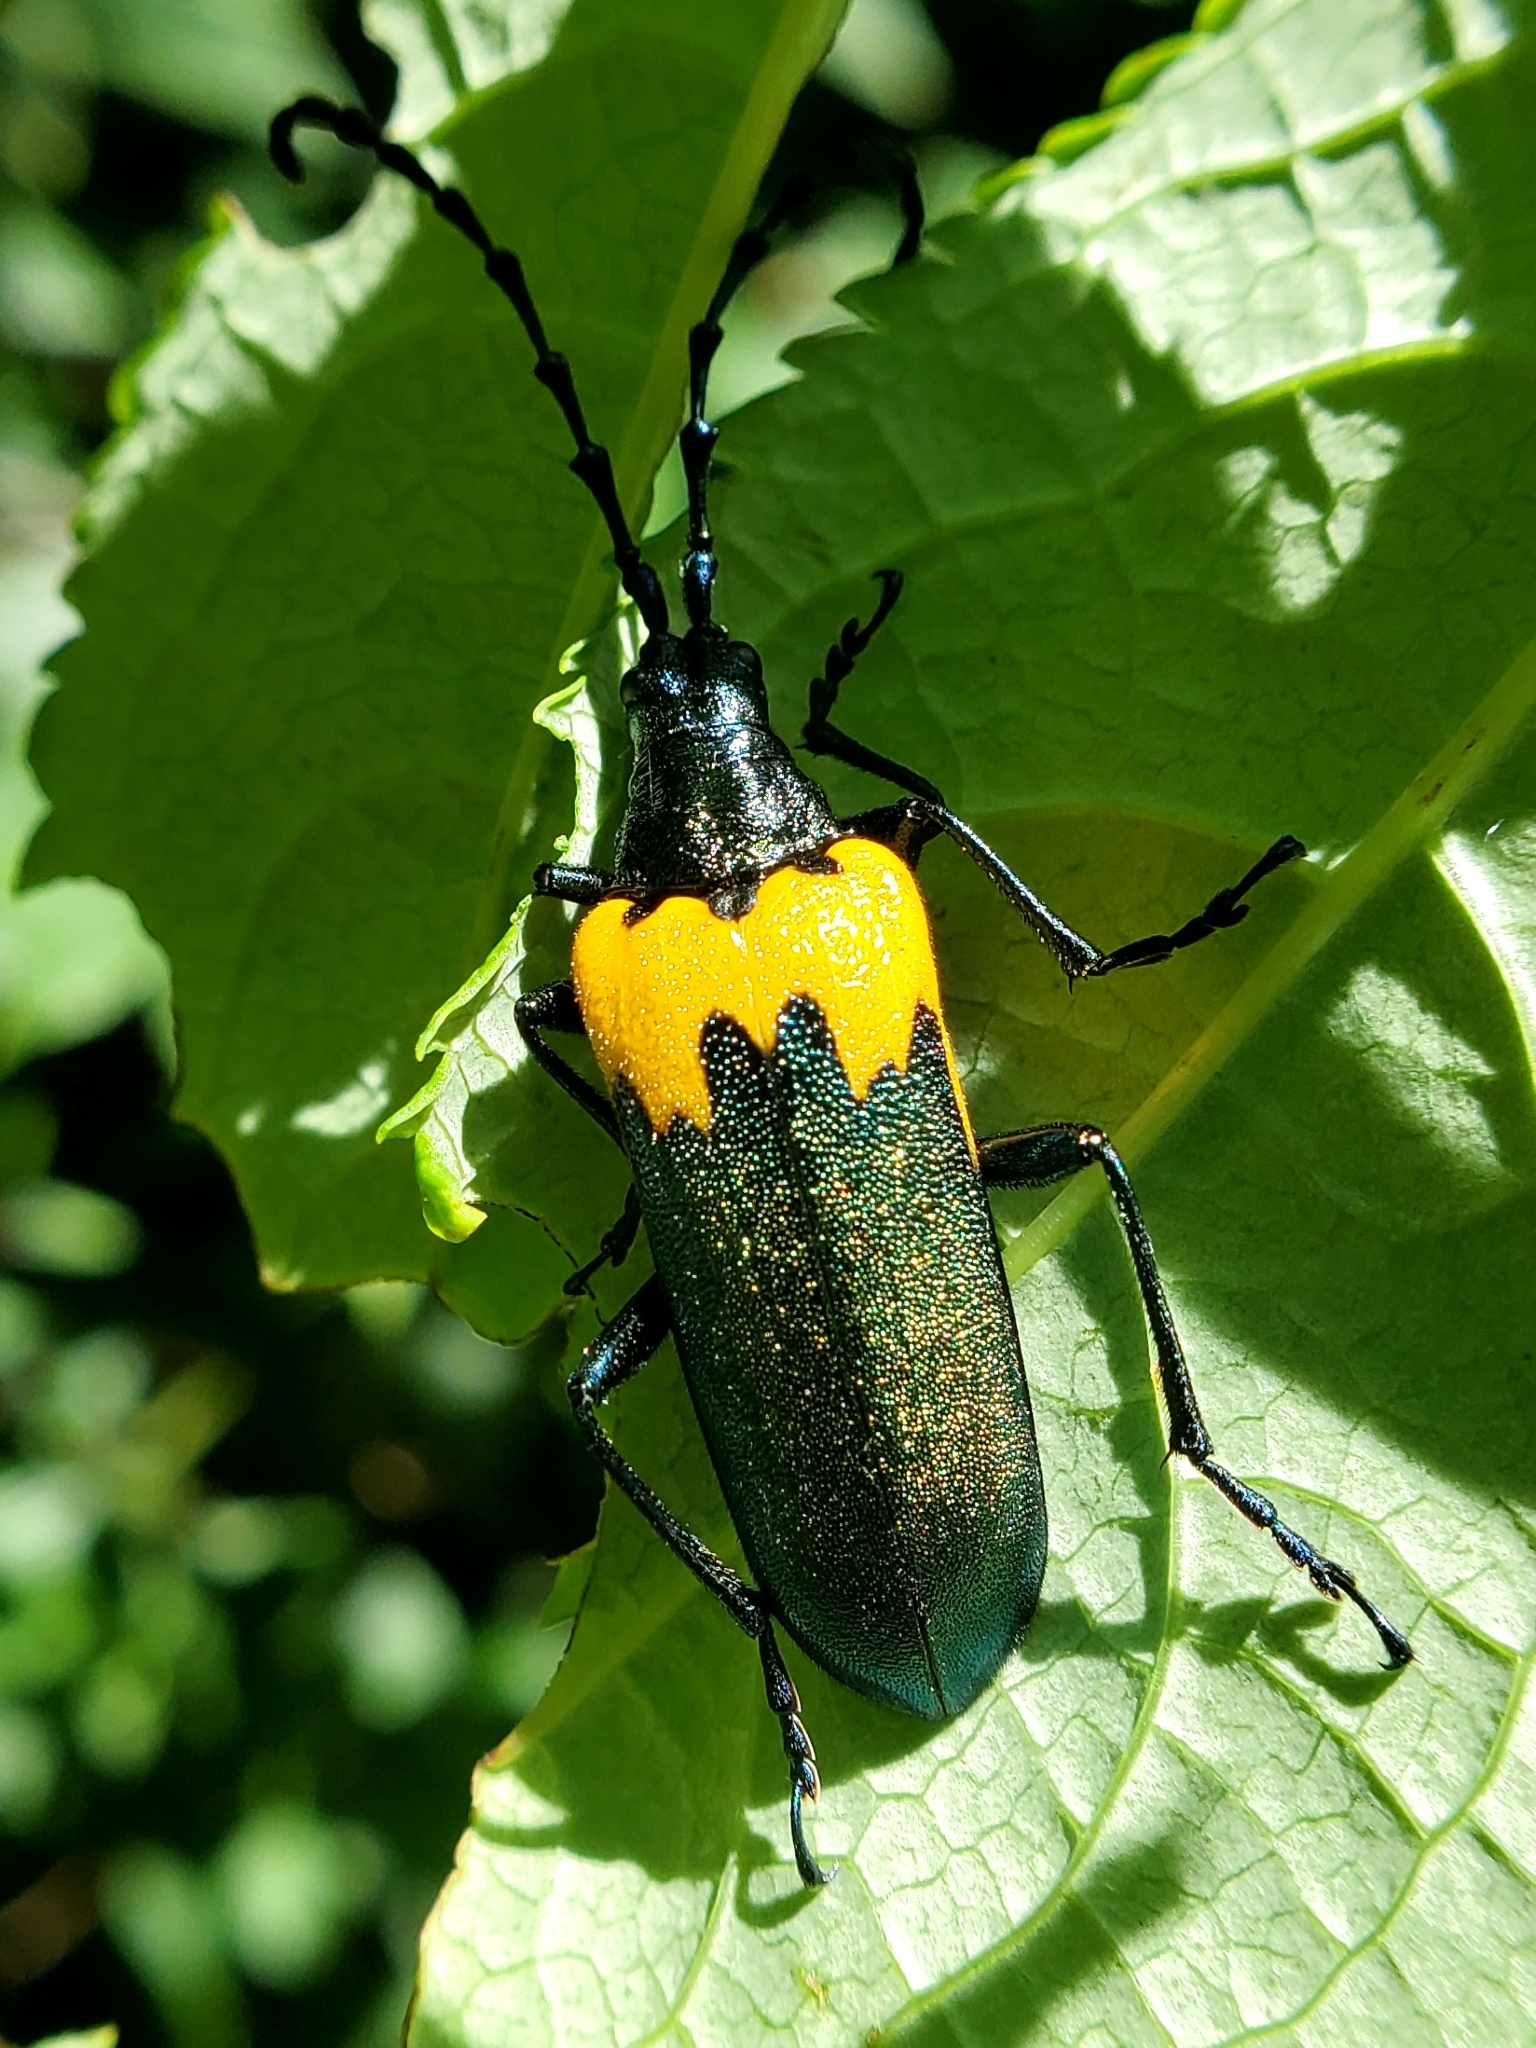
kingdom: Animalia
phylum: Arthropoda
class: Insecta
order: Coleoptera
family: Cerambycidae
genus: Desmocerus
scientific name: Desmocerus palliatus
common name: Eastern elderberry borer
